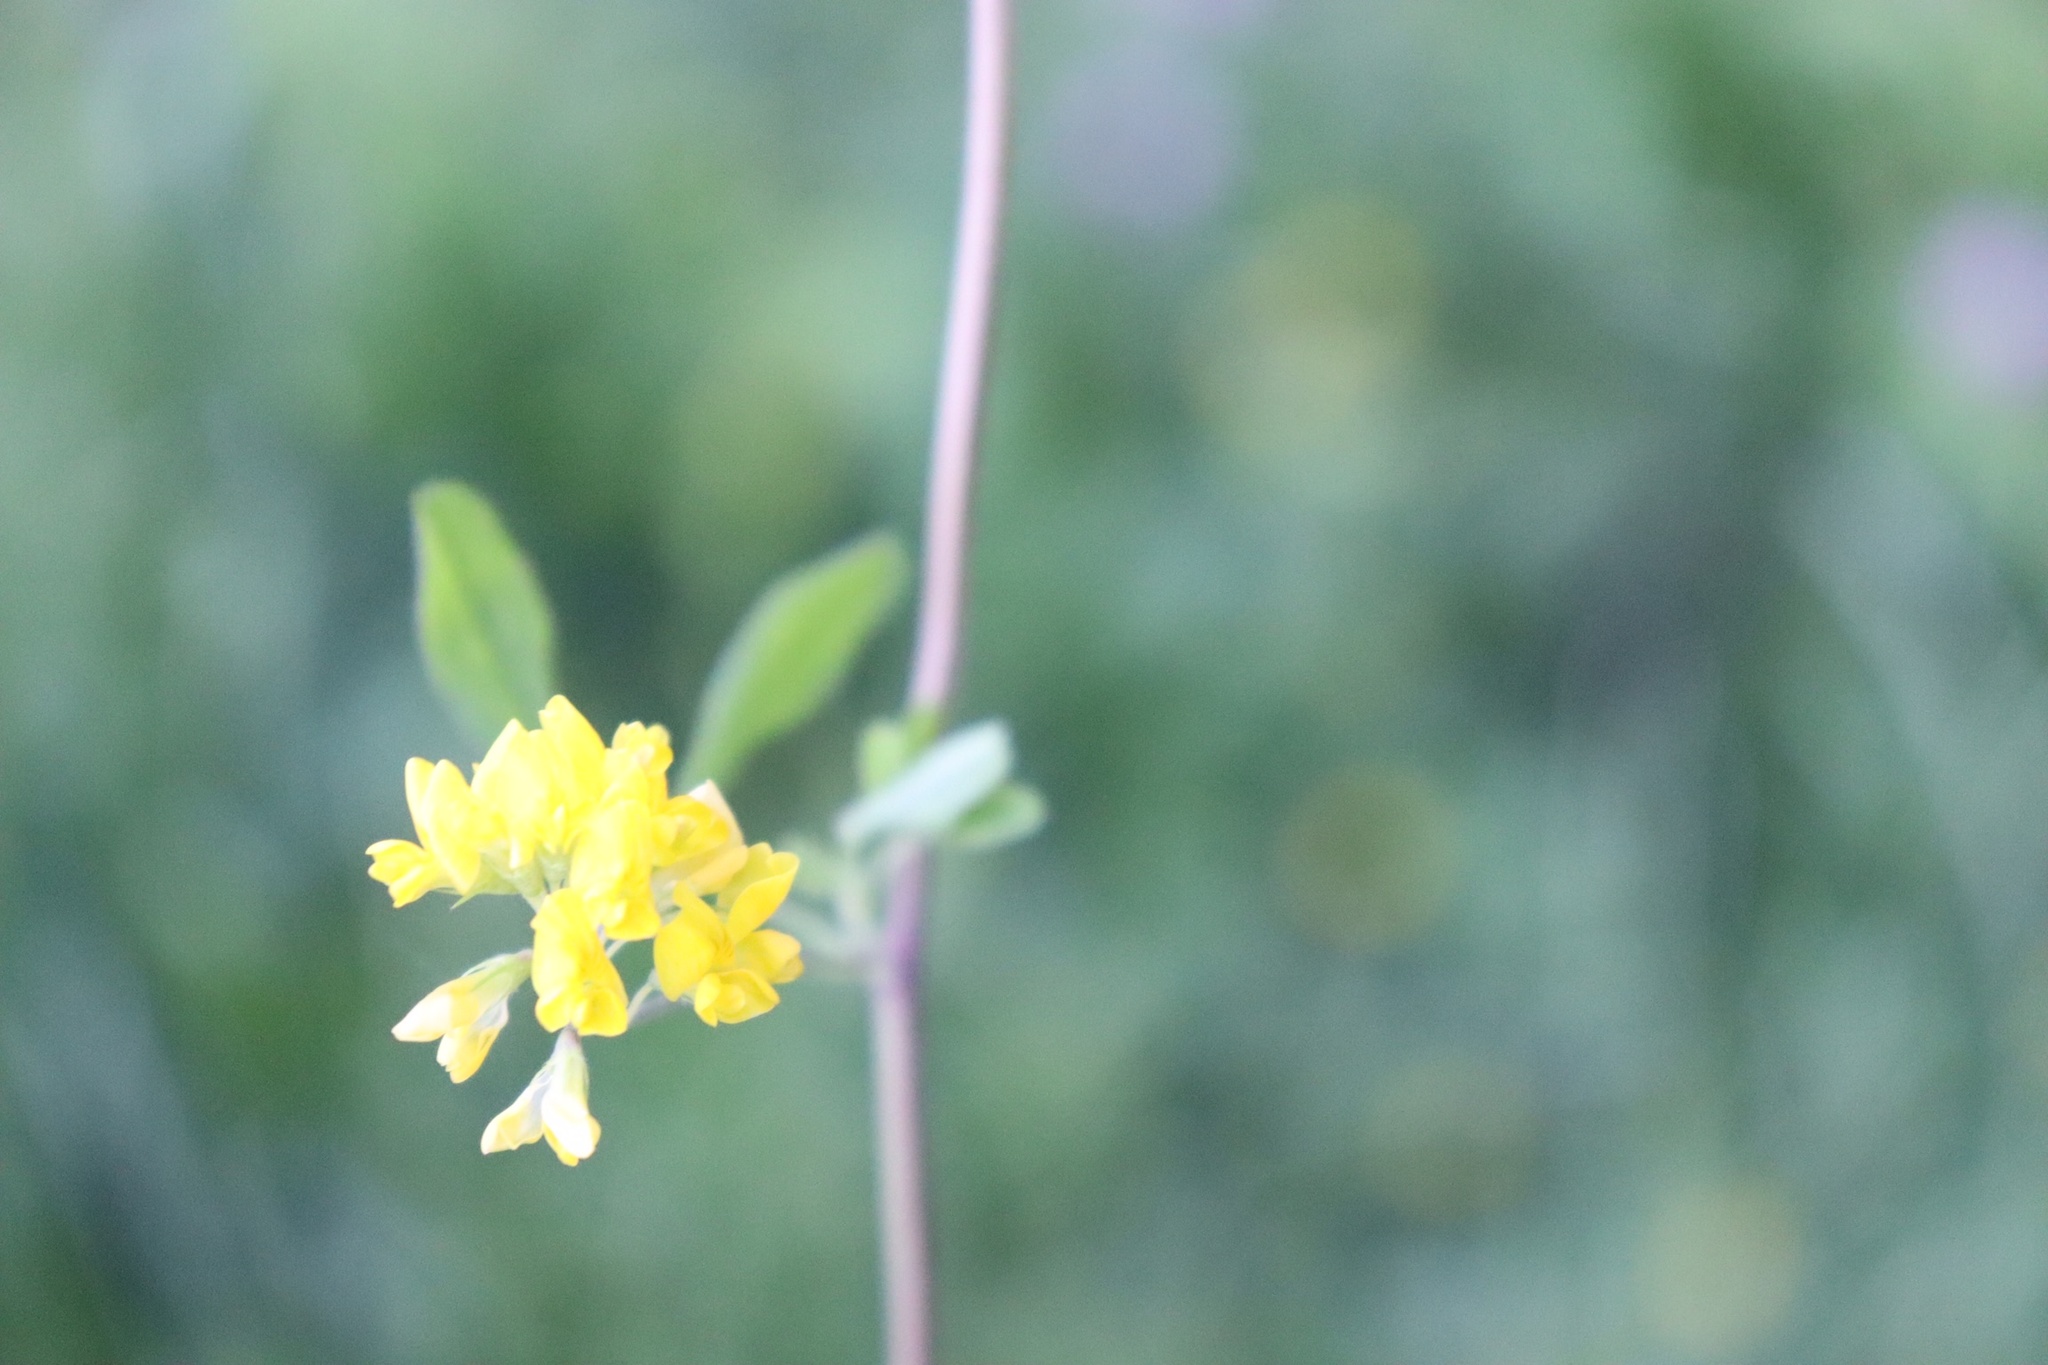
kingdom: Plantae
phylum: Tracheophyta
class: Magnoliopsida
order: Fabales
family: Fabaceae
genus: Medicago
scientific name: Medicago falcata
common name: Sickle medick
